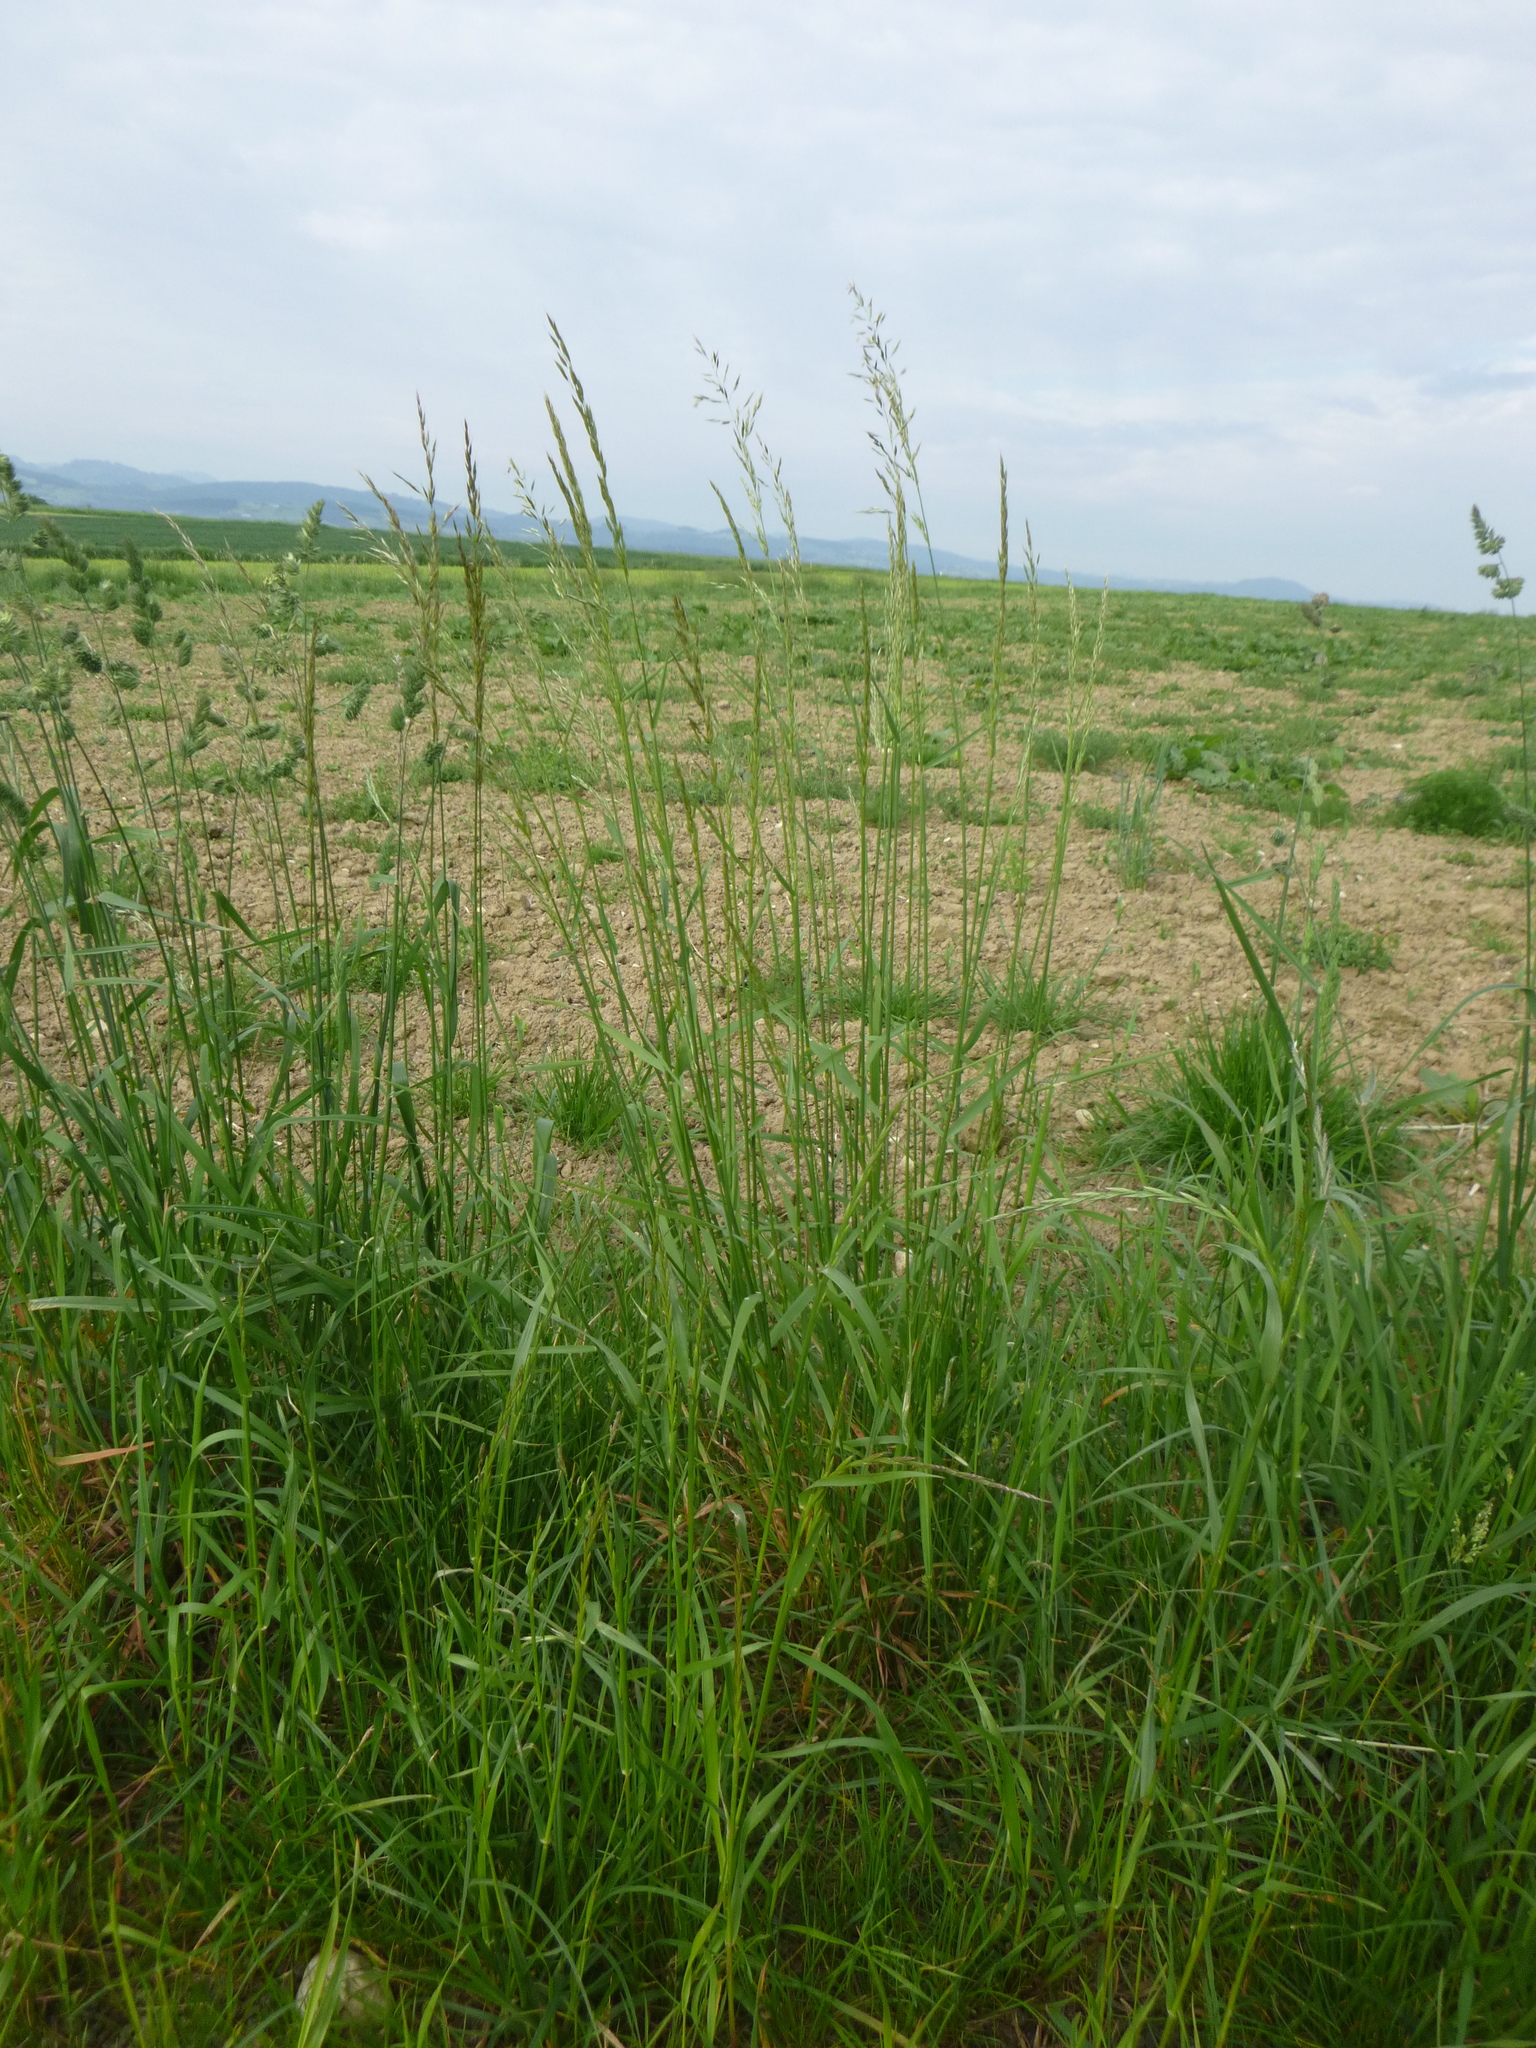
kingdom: Plantae
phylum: Tracheophyta
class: Liliopsida
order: Poales
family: Poaceae
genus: Arrhenatherum
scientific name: Arrhenatherum elatius
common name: Tall oatgrass
